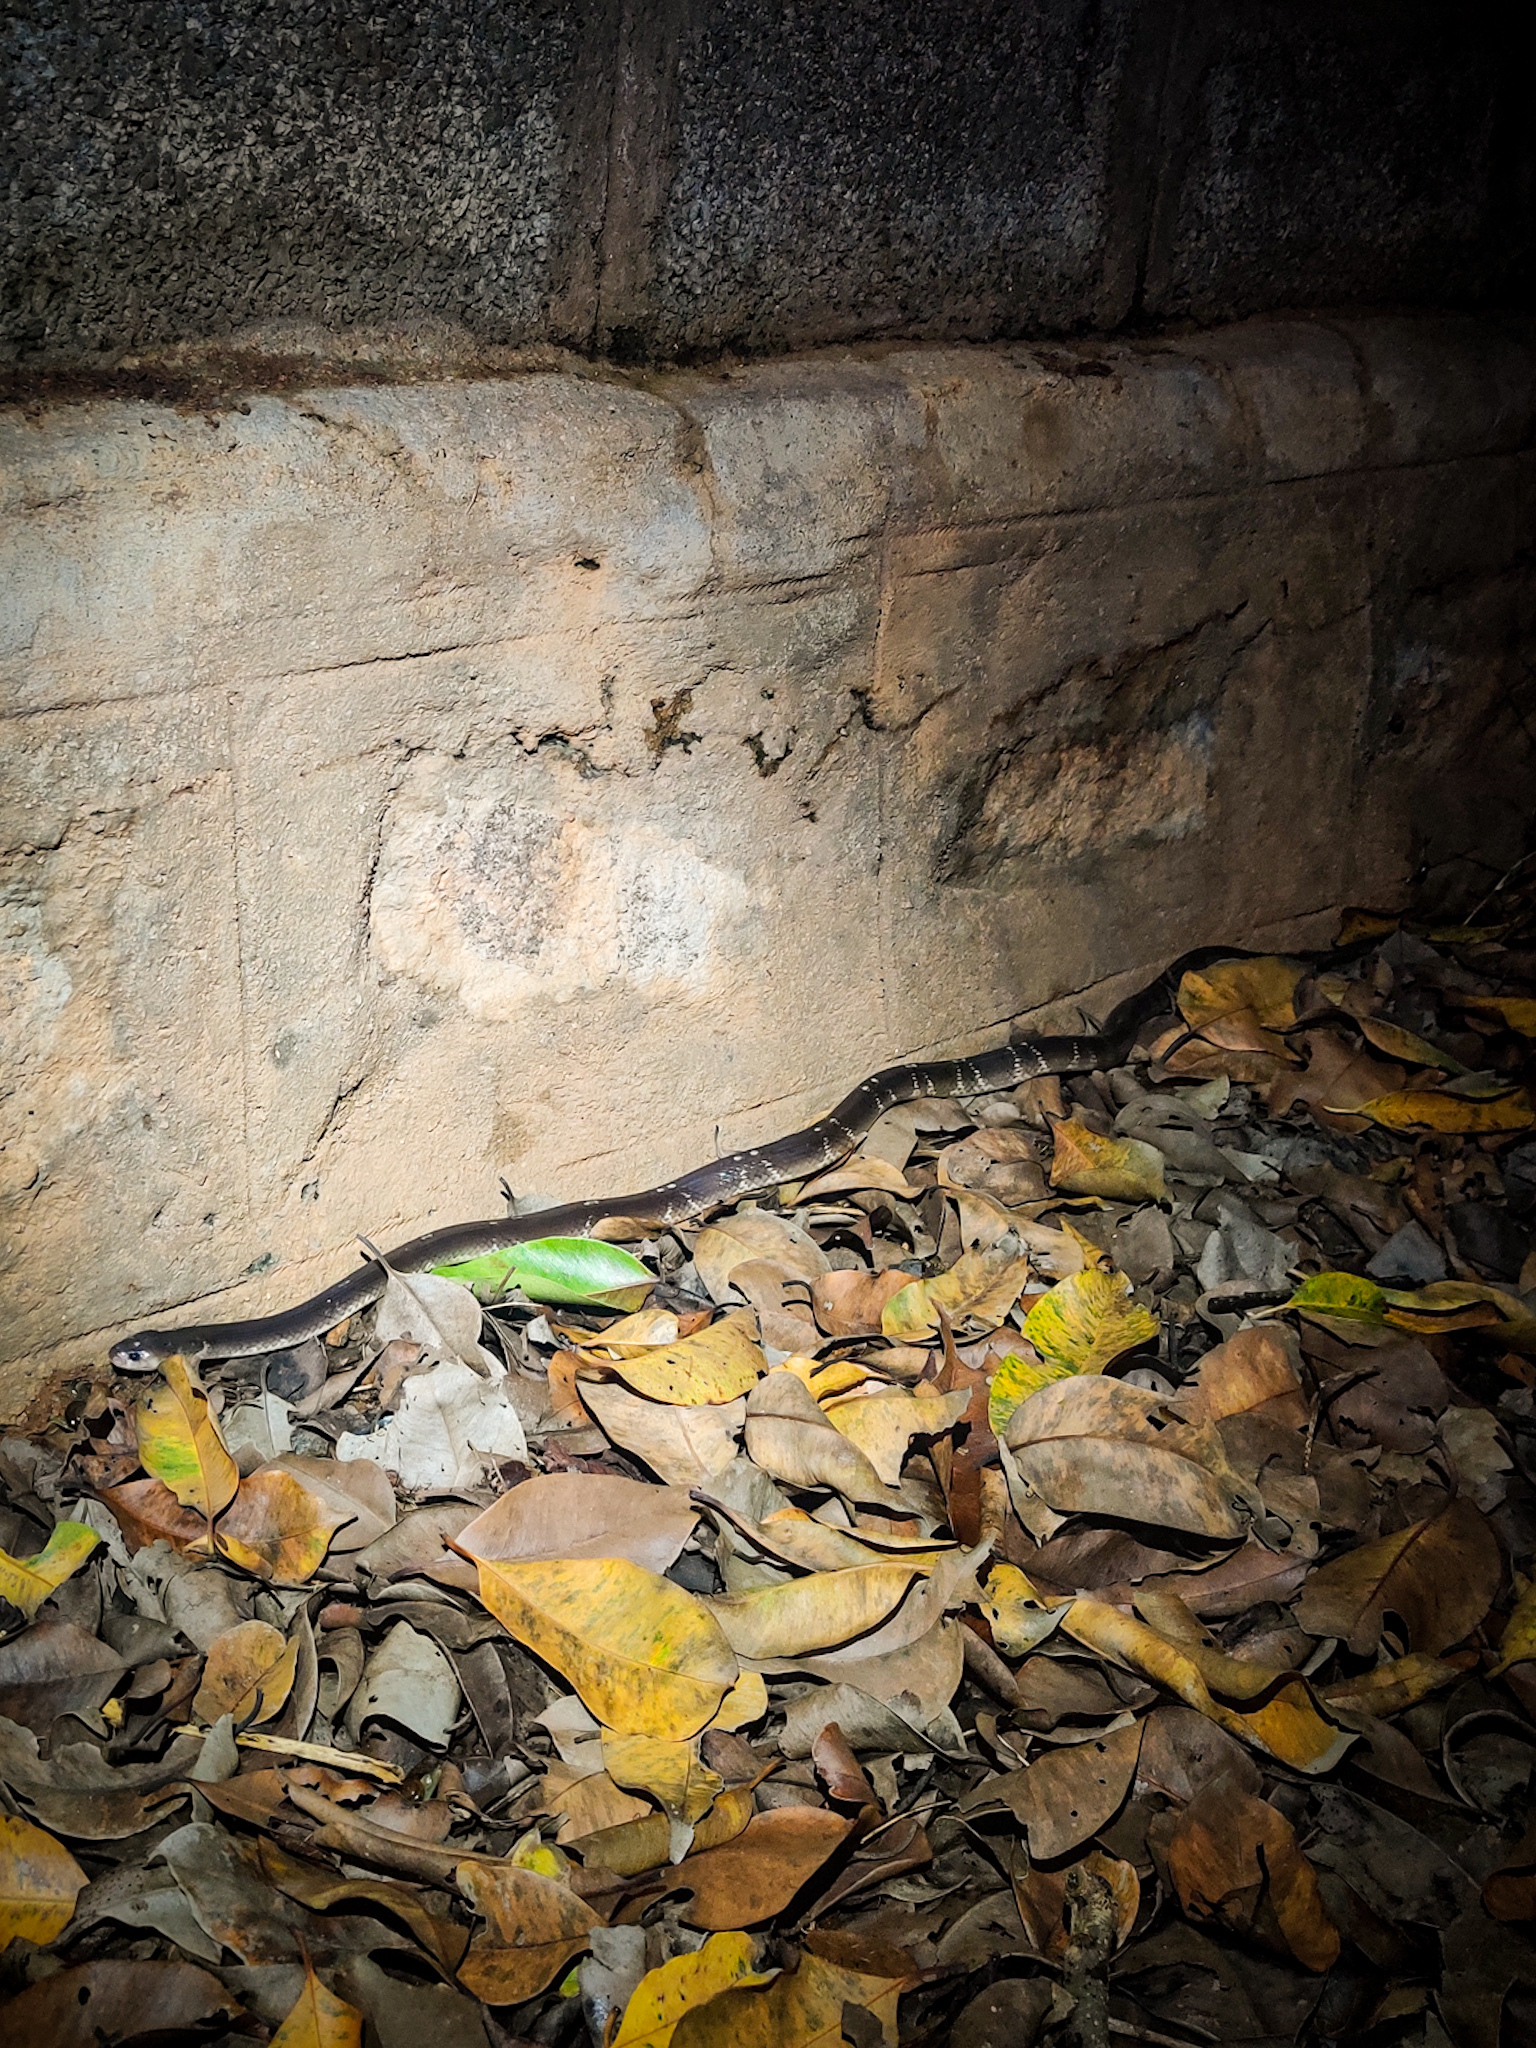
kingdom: Animalia
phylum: Chordata
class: Squamata
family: Elapidae
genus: Bungarus
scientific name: Bungarus caeruleus
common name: Common krait
